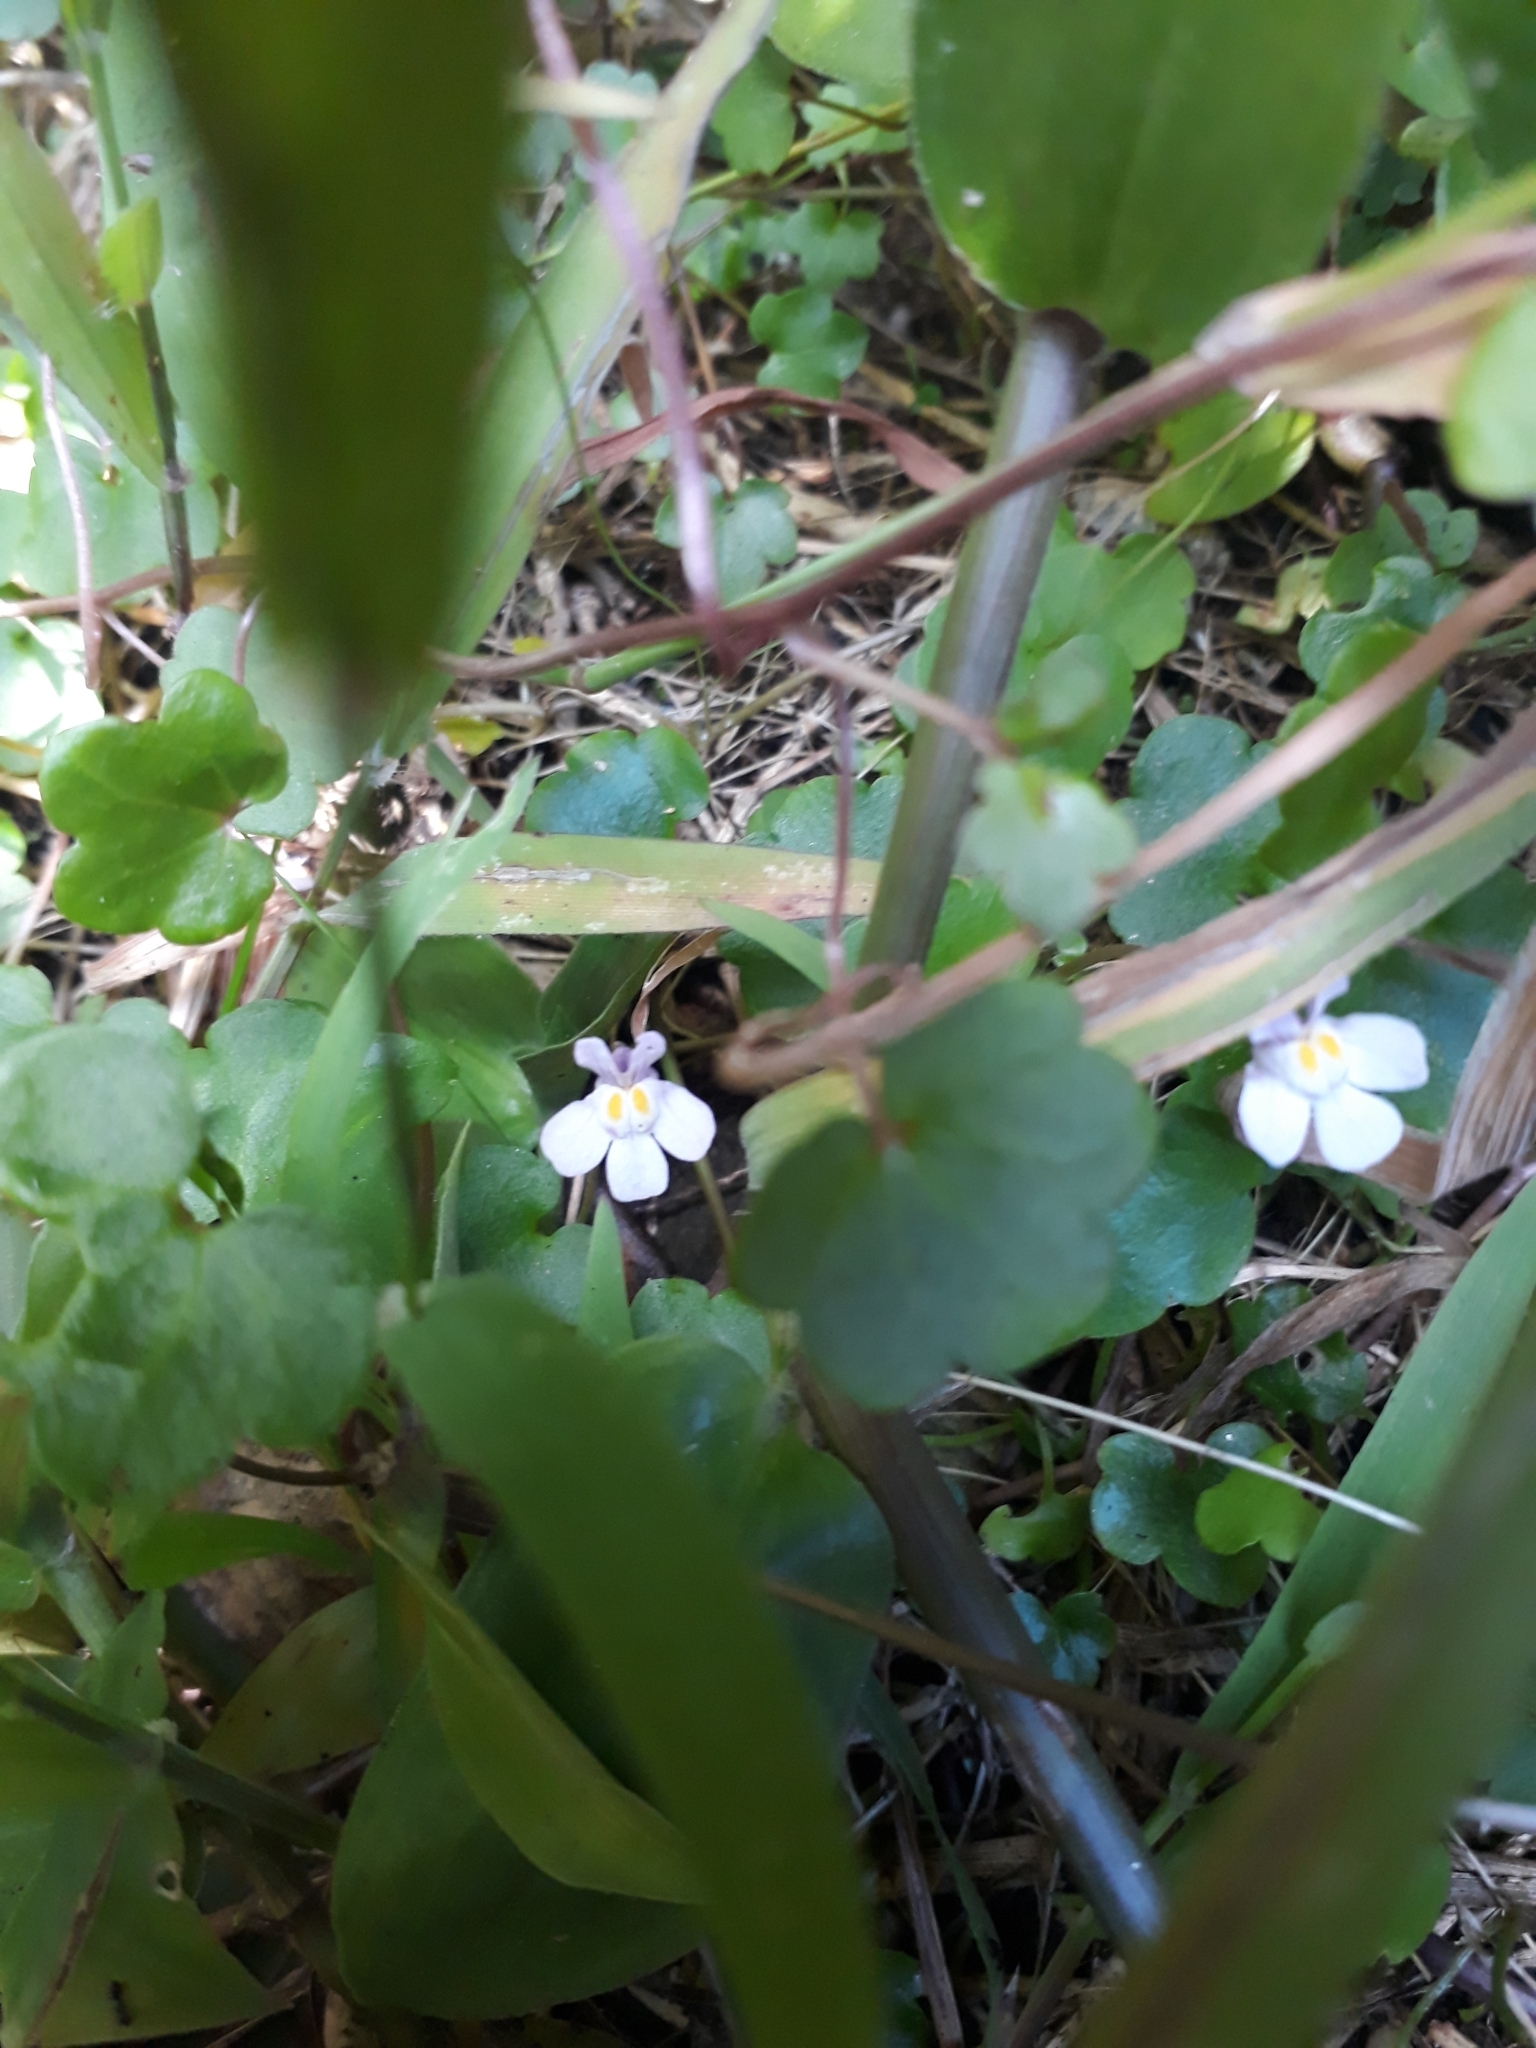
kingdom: Plantae
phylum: Tracheophyta
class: Magnoliopsida
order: Lamiales
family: Plantaginaceae
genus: Cymbalaria
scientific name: Cymbalaria muralis
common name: Ivy-leaved toadflax
